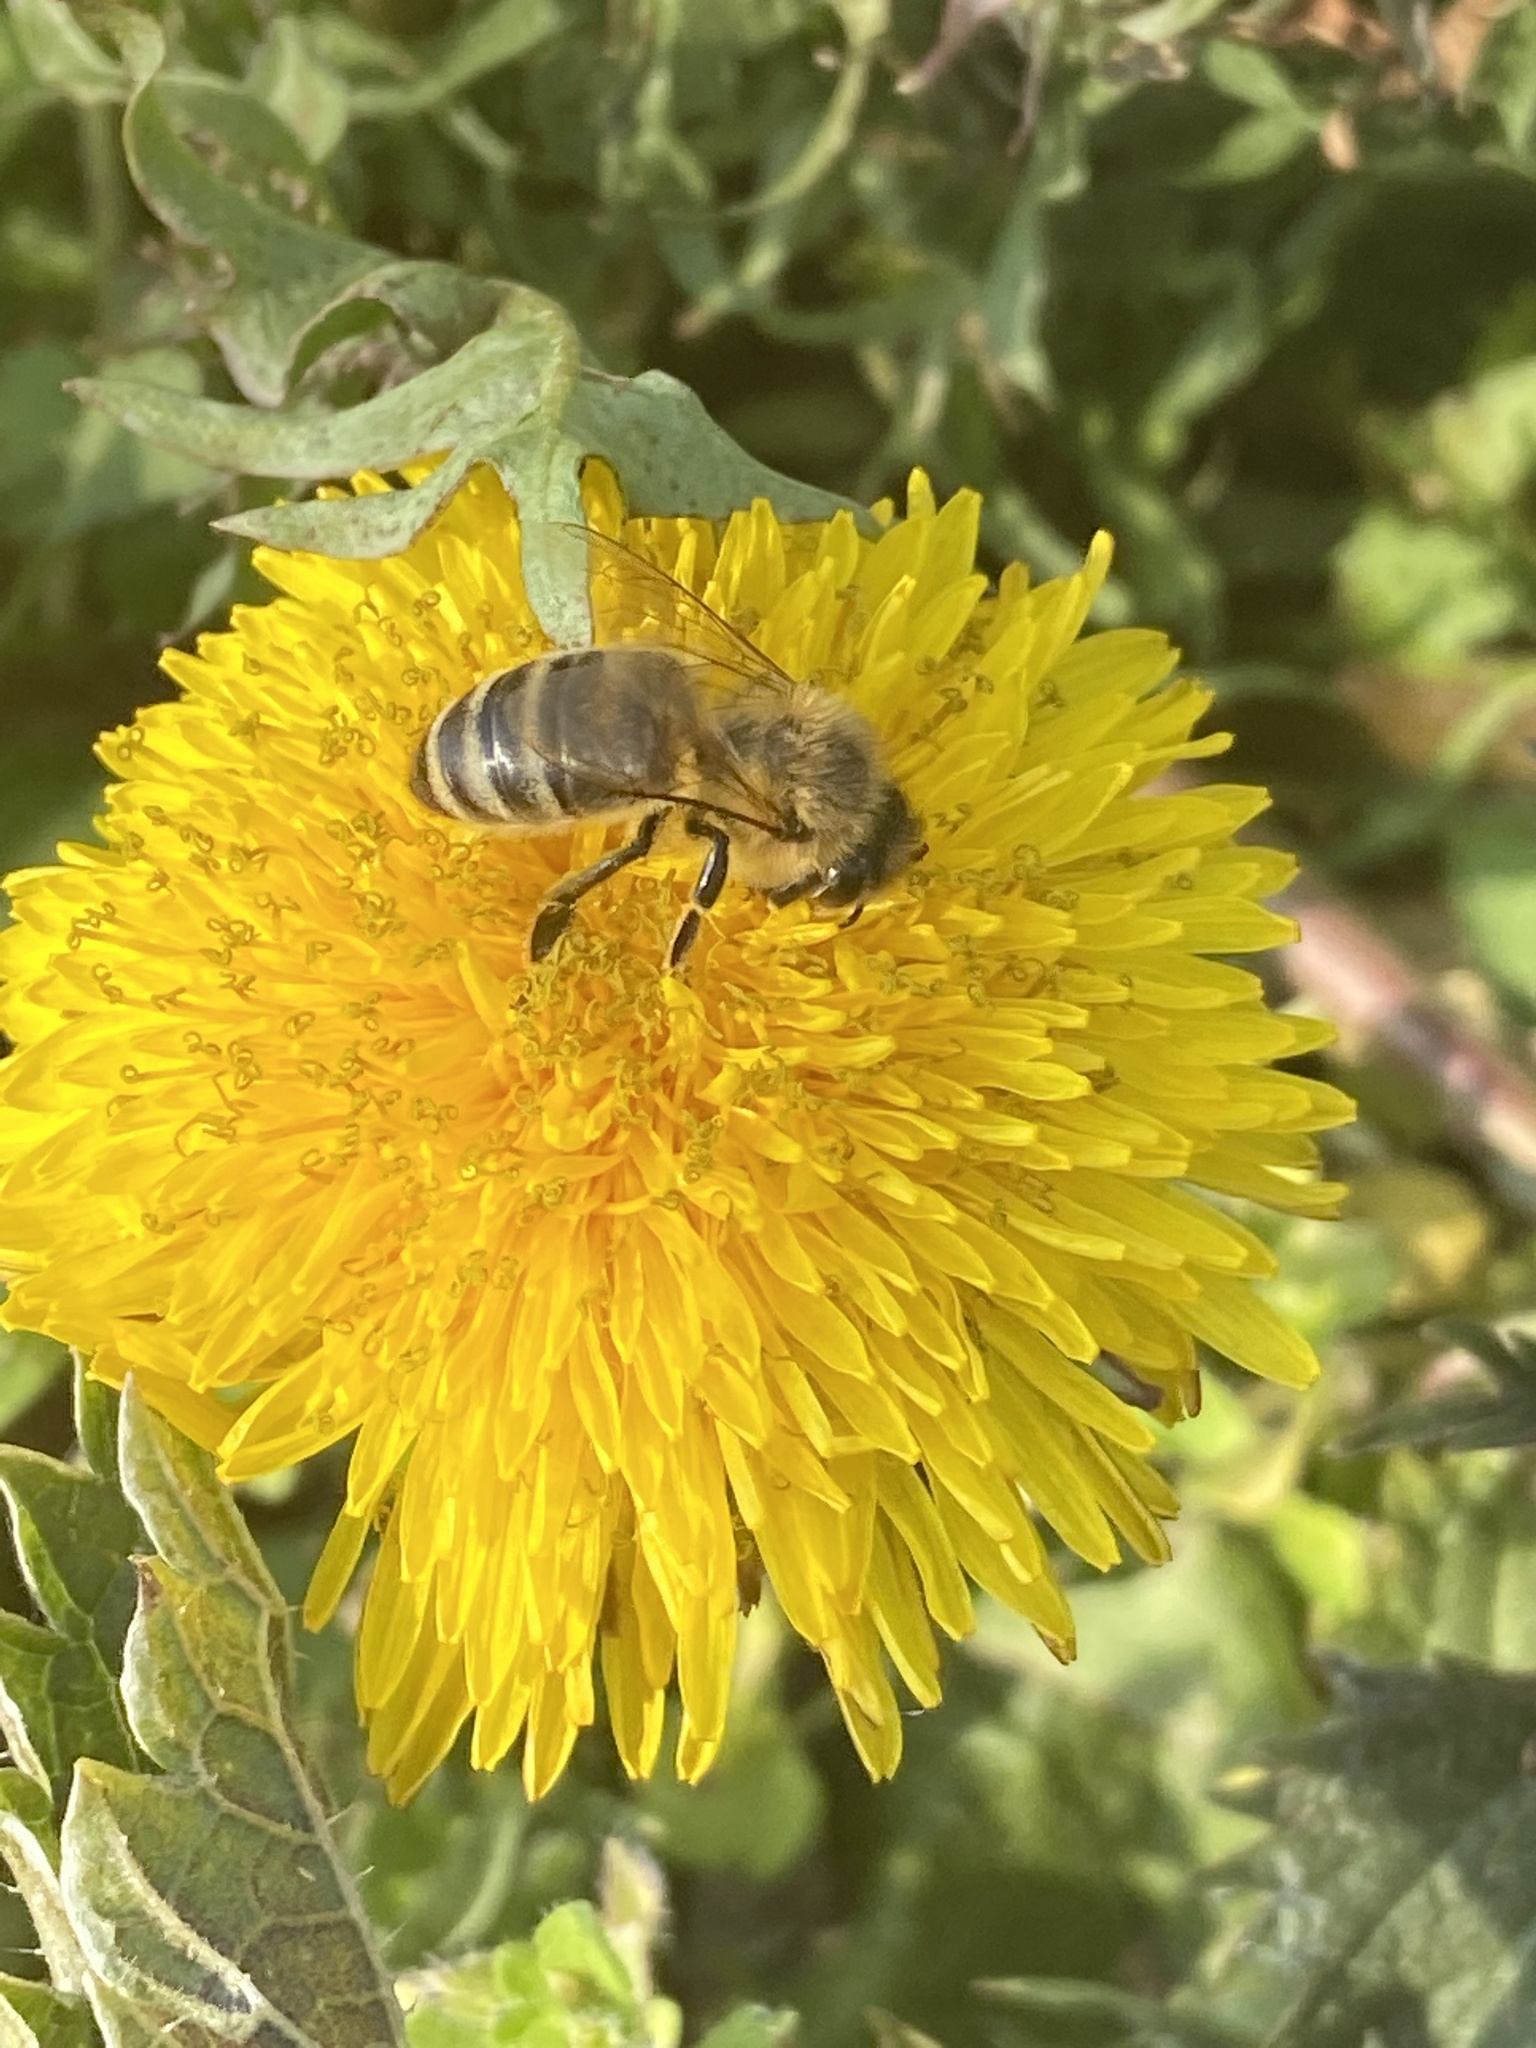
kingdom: Animalia
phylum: Arthropoda
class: Insecta
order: Hymenoptera
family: Apidae
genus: Apis
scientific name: Apis mellifera
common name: Honey bee
